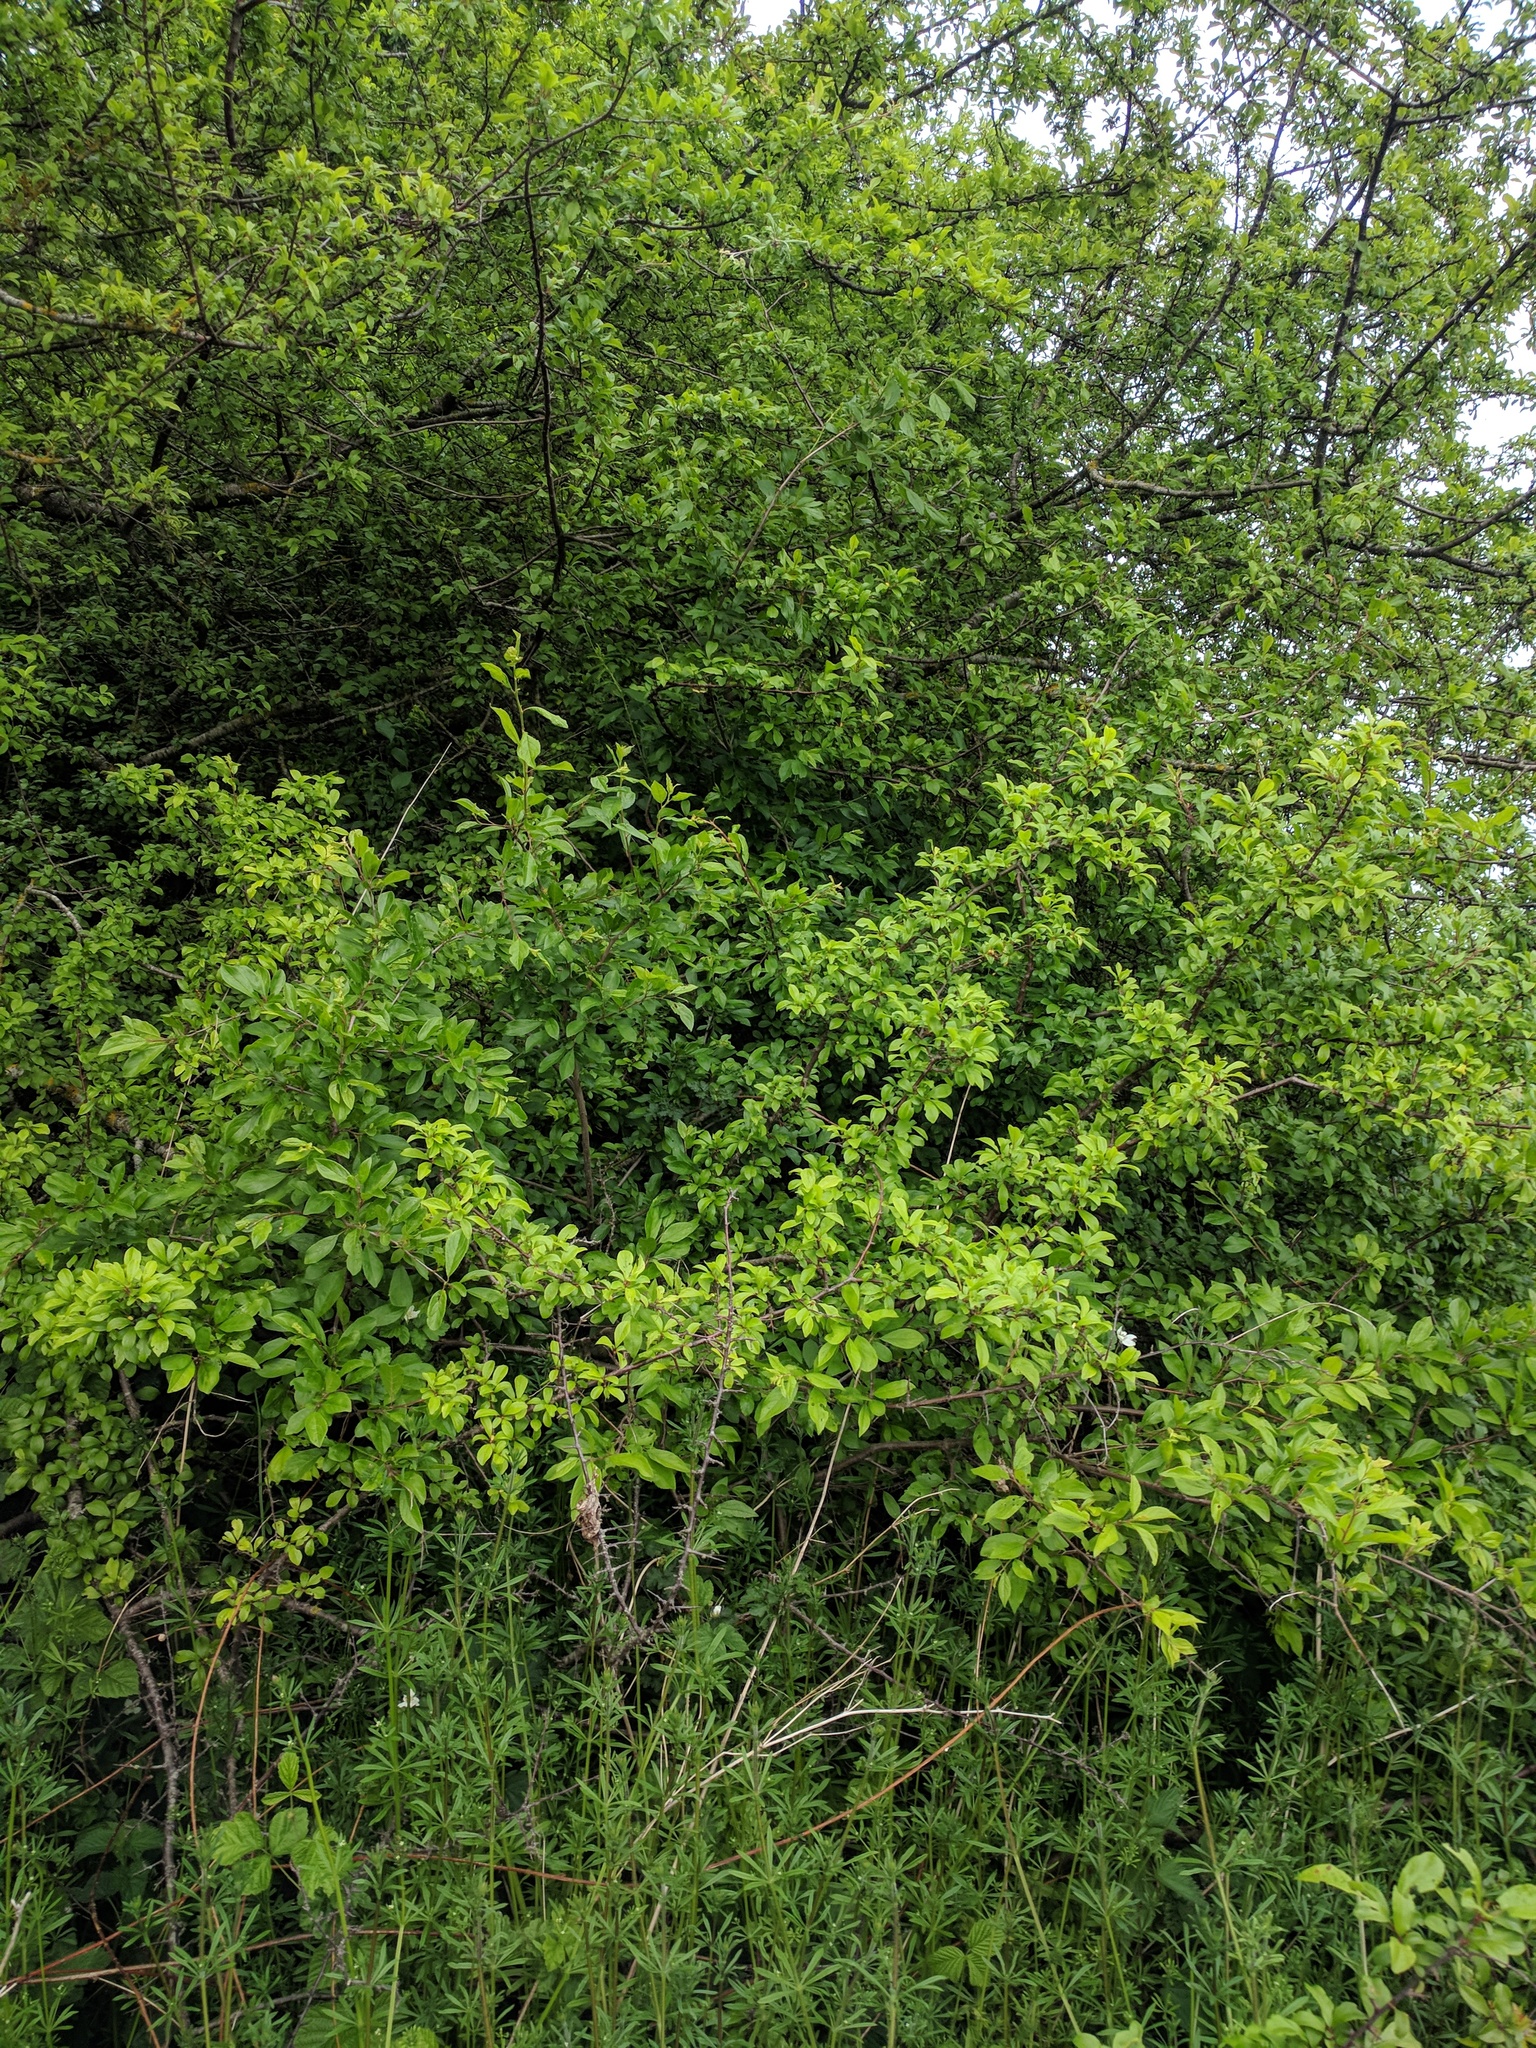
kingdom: Plantae
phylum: Tracheophyta
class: Magnoliopsida
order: Rosales
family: Rosaceae
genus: Prunus
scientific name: Prunus spinosa
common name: Blackthorn
